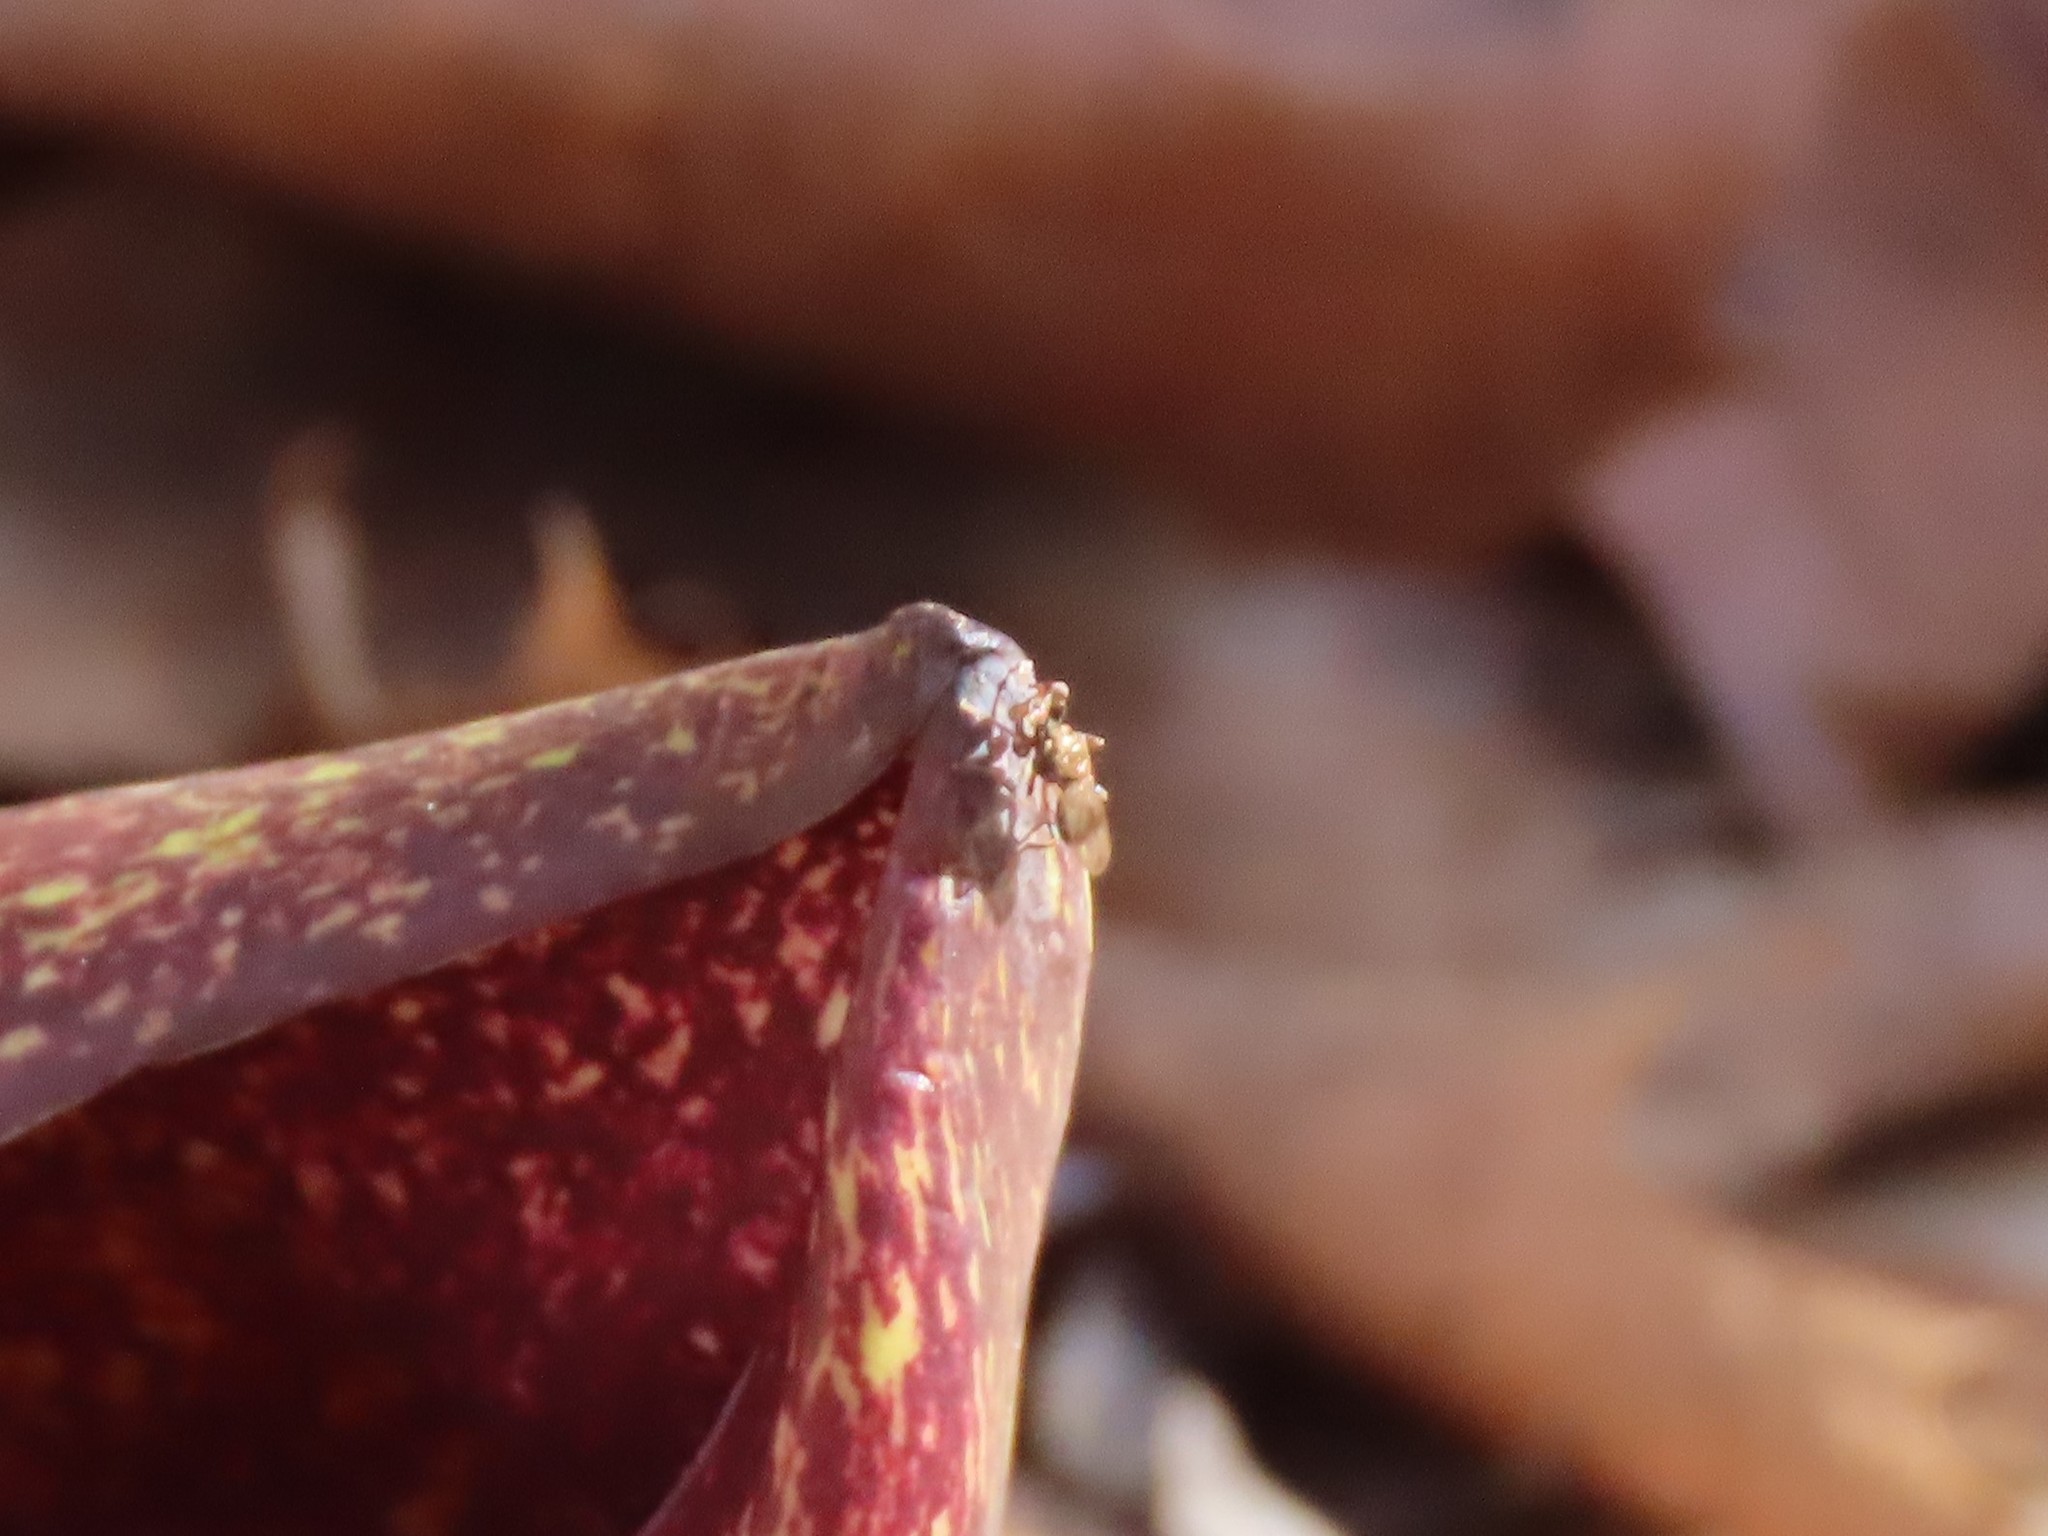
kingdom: Animalia
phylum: Arthropoda
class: Insecta
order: Diptera
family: Diopsidae
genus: Sphyracephala
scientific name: Sphyracephala
